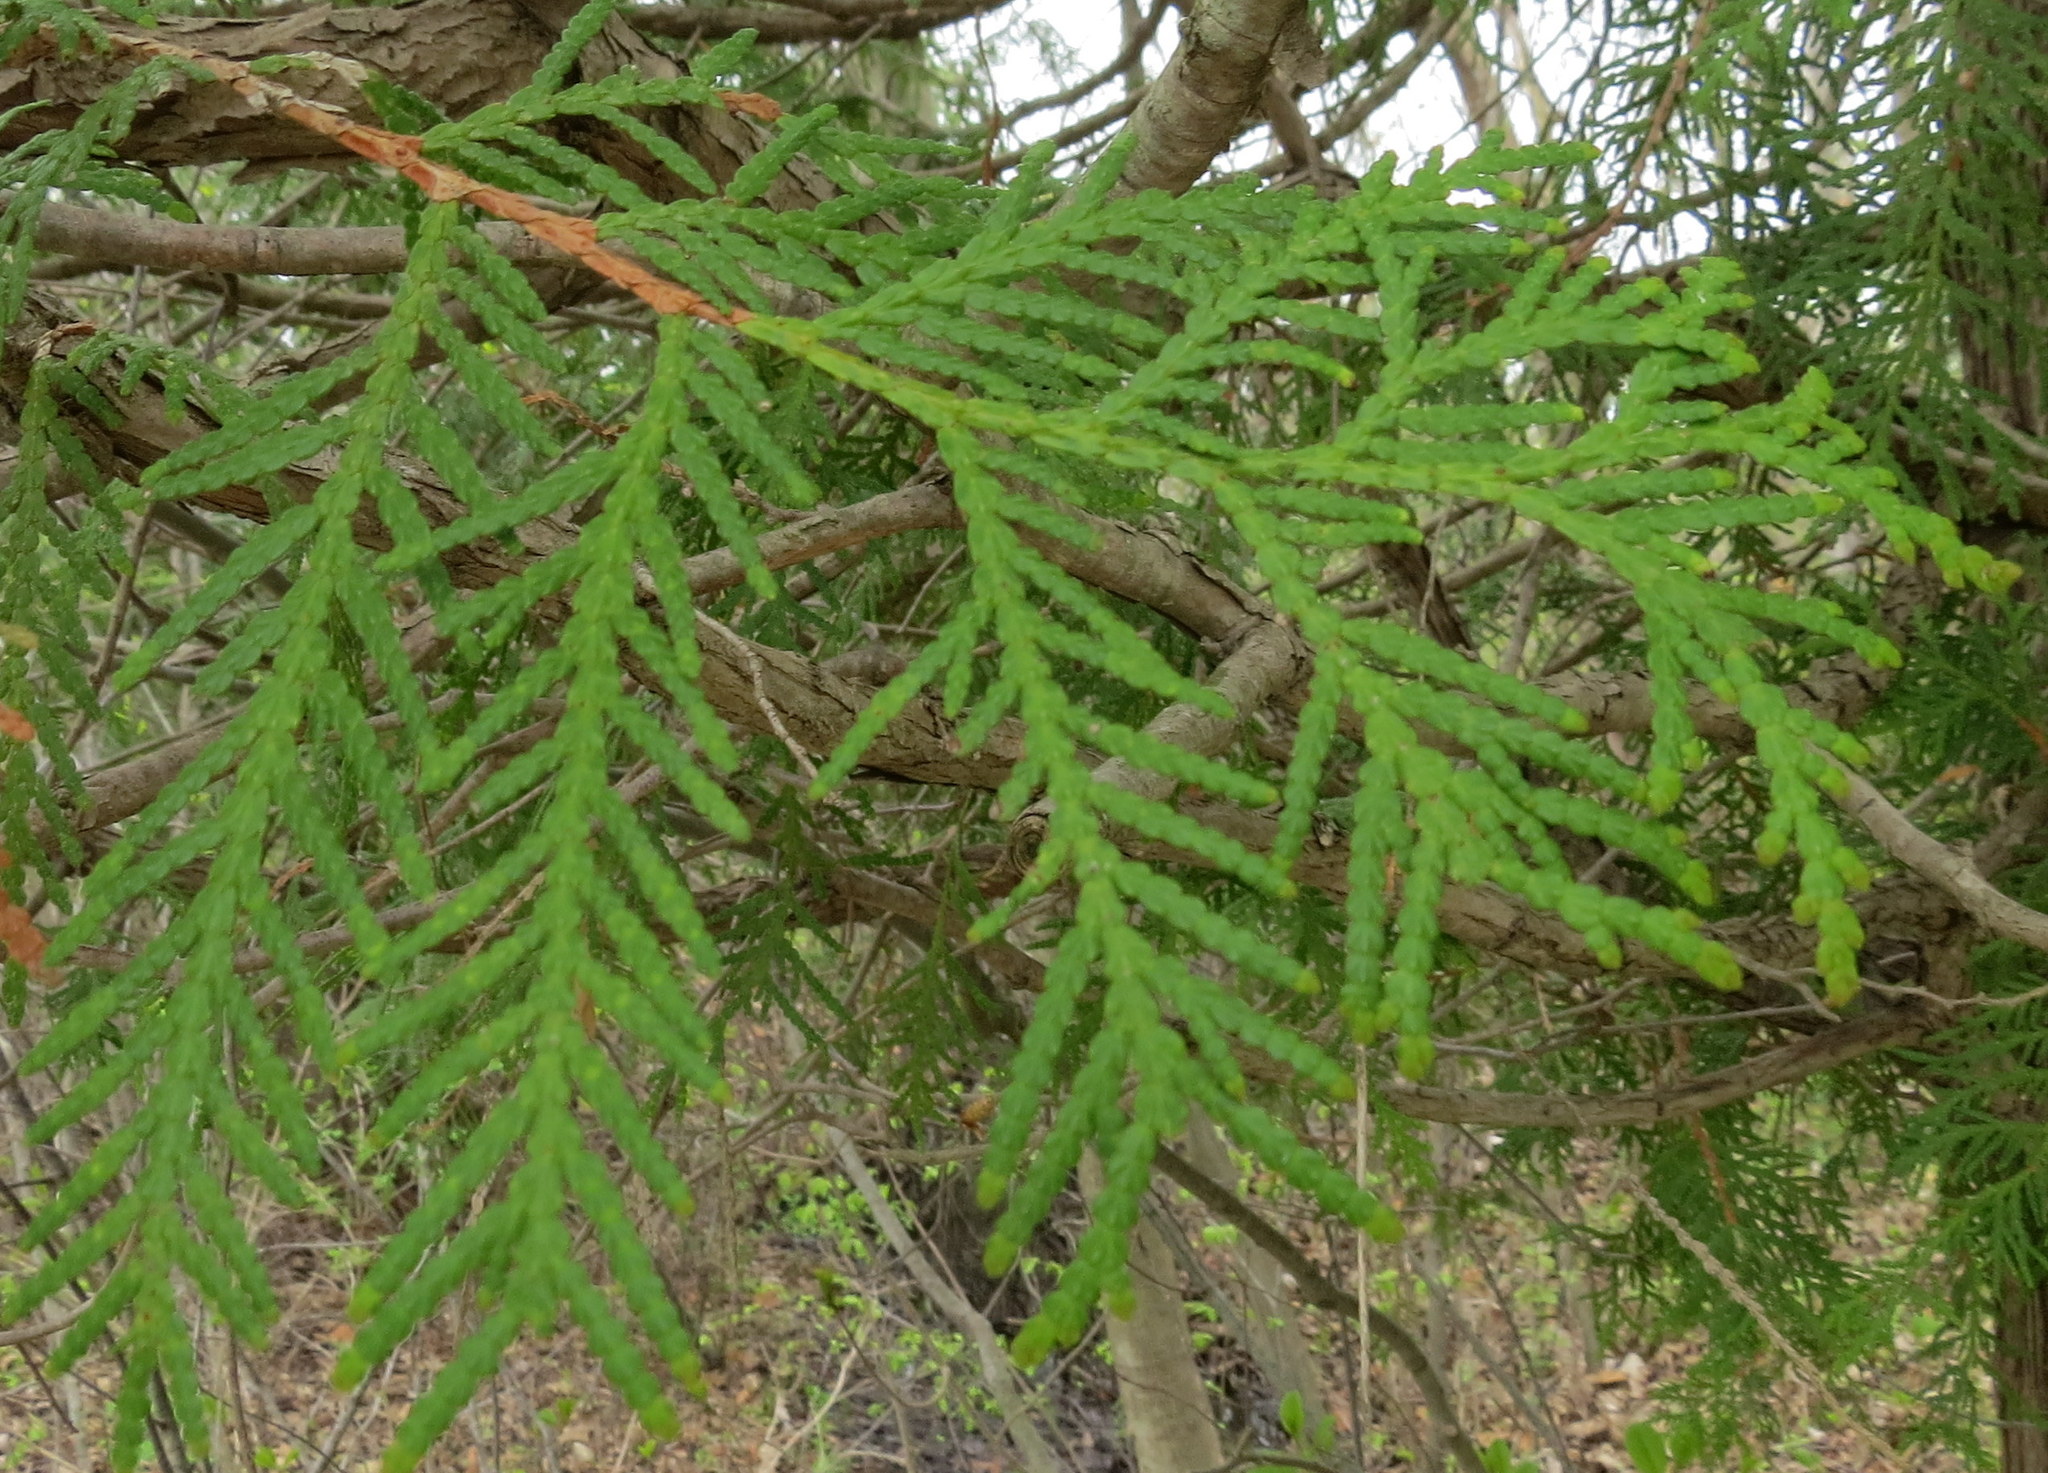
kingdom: Plantae
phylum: Tracheophyta
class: Pinopsida
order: Pinales
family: Cupressaceae
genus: Thuja
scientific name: Thuja occidentalis
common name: Northern white-cedar
